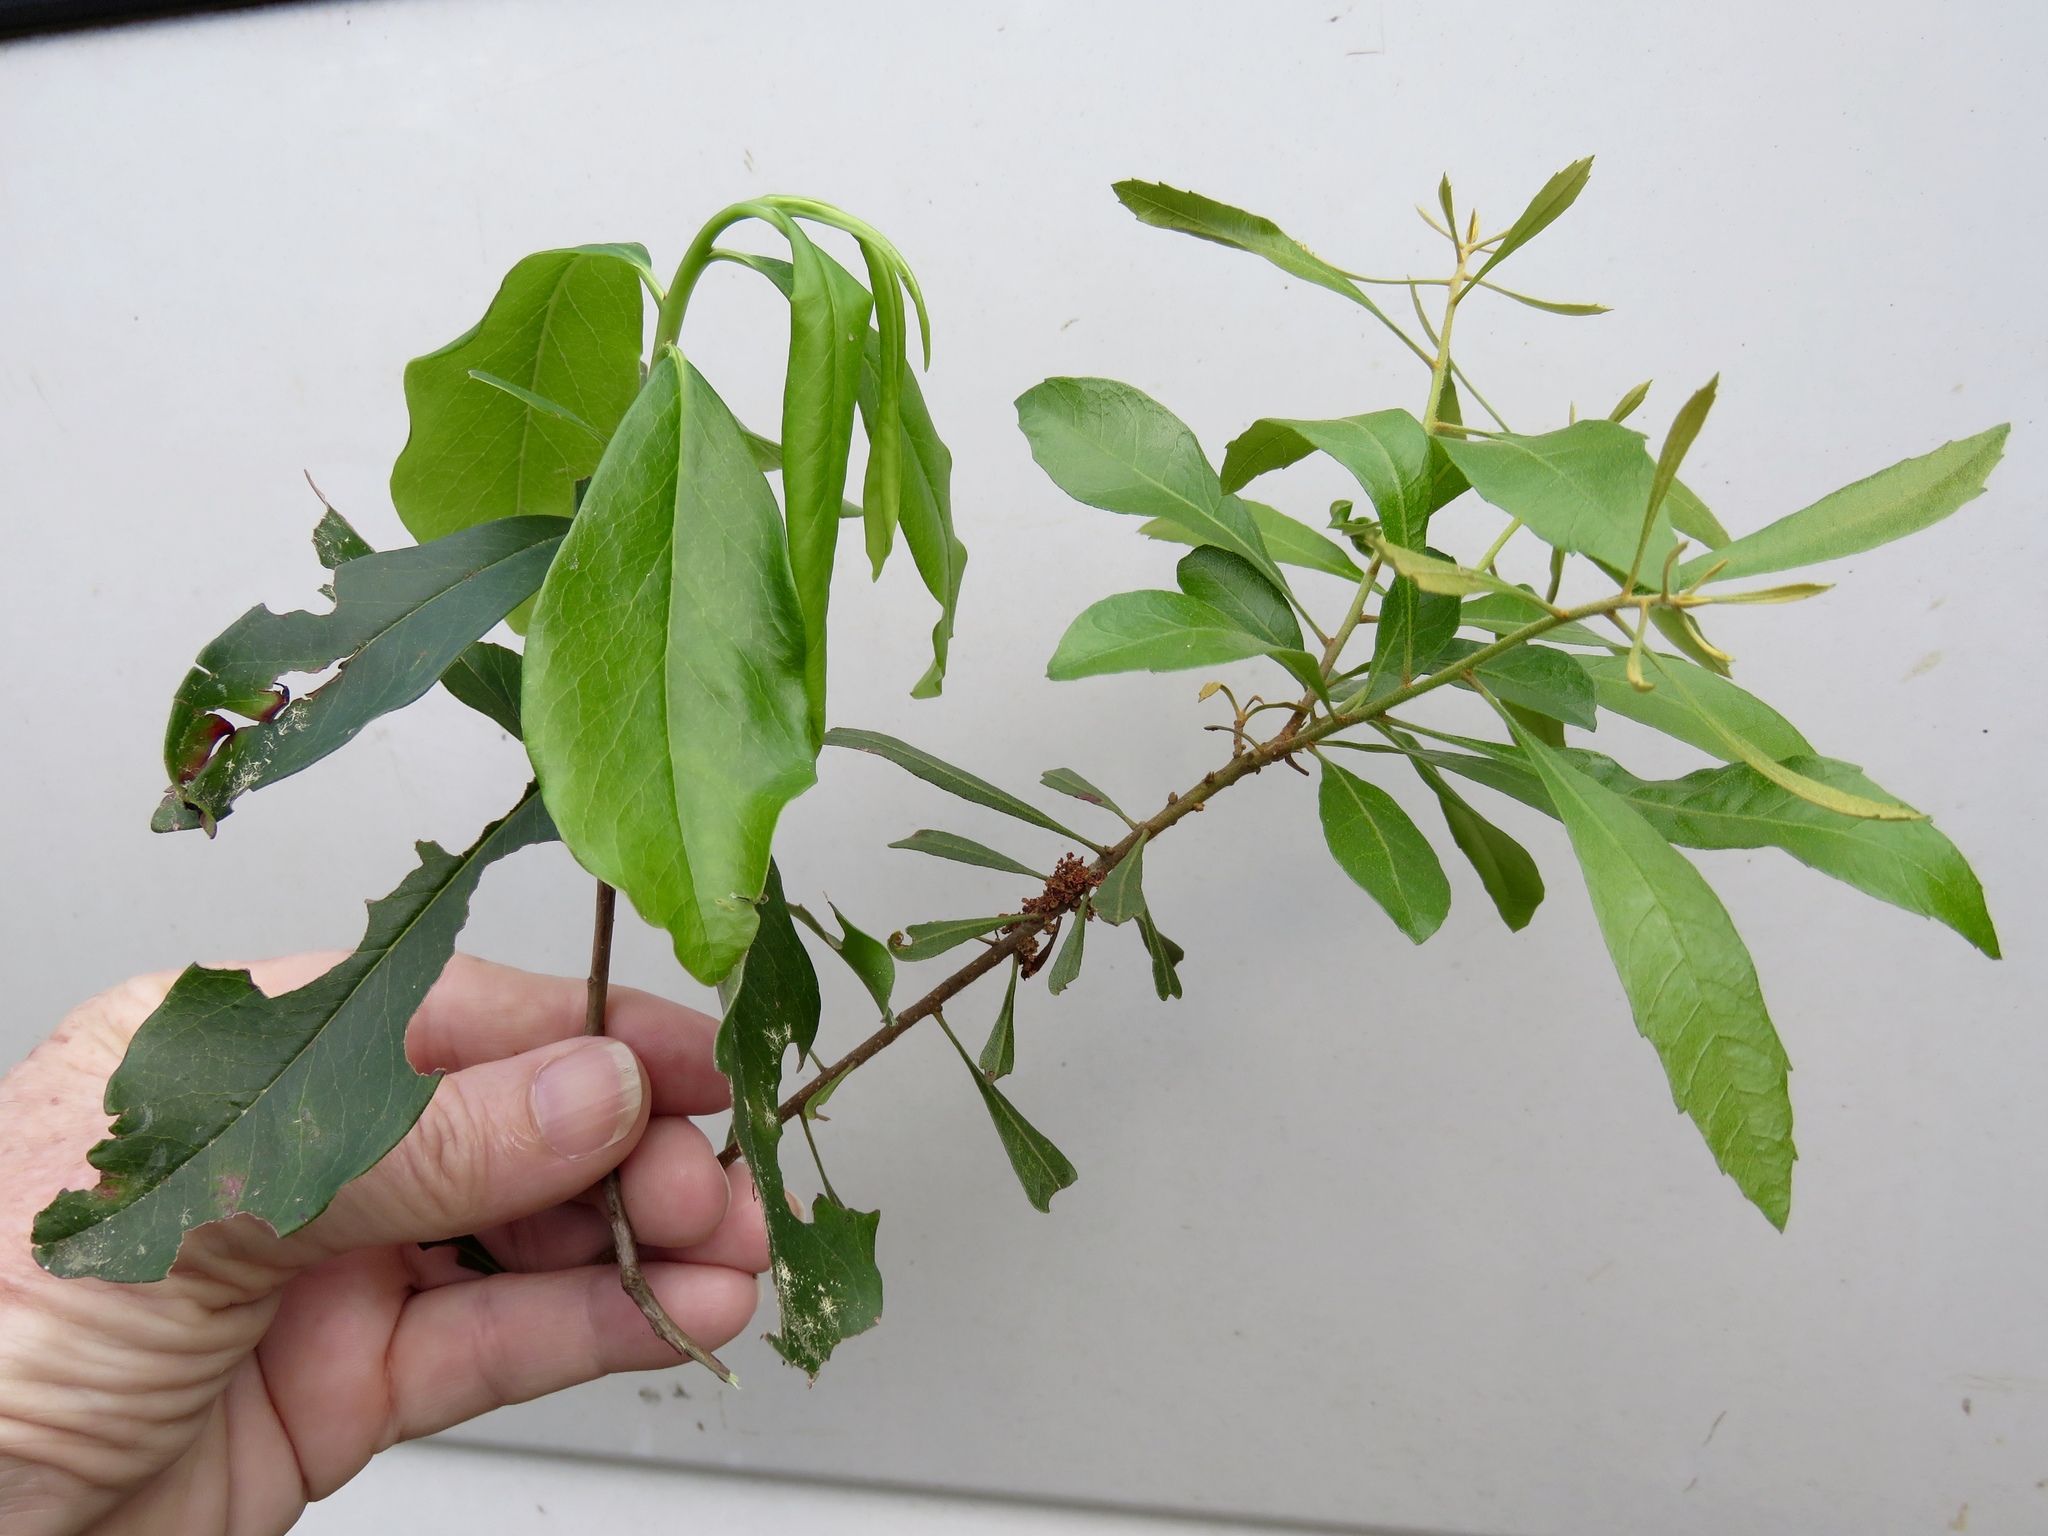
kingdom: Plantae
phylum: Tracheophyta
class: Magnoliopsida
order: Ericales
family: Cyrillaceae
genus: Cyrilla
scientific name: Cyrilla racemiflora
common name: Black titi
